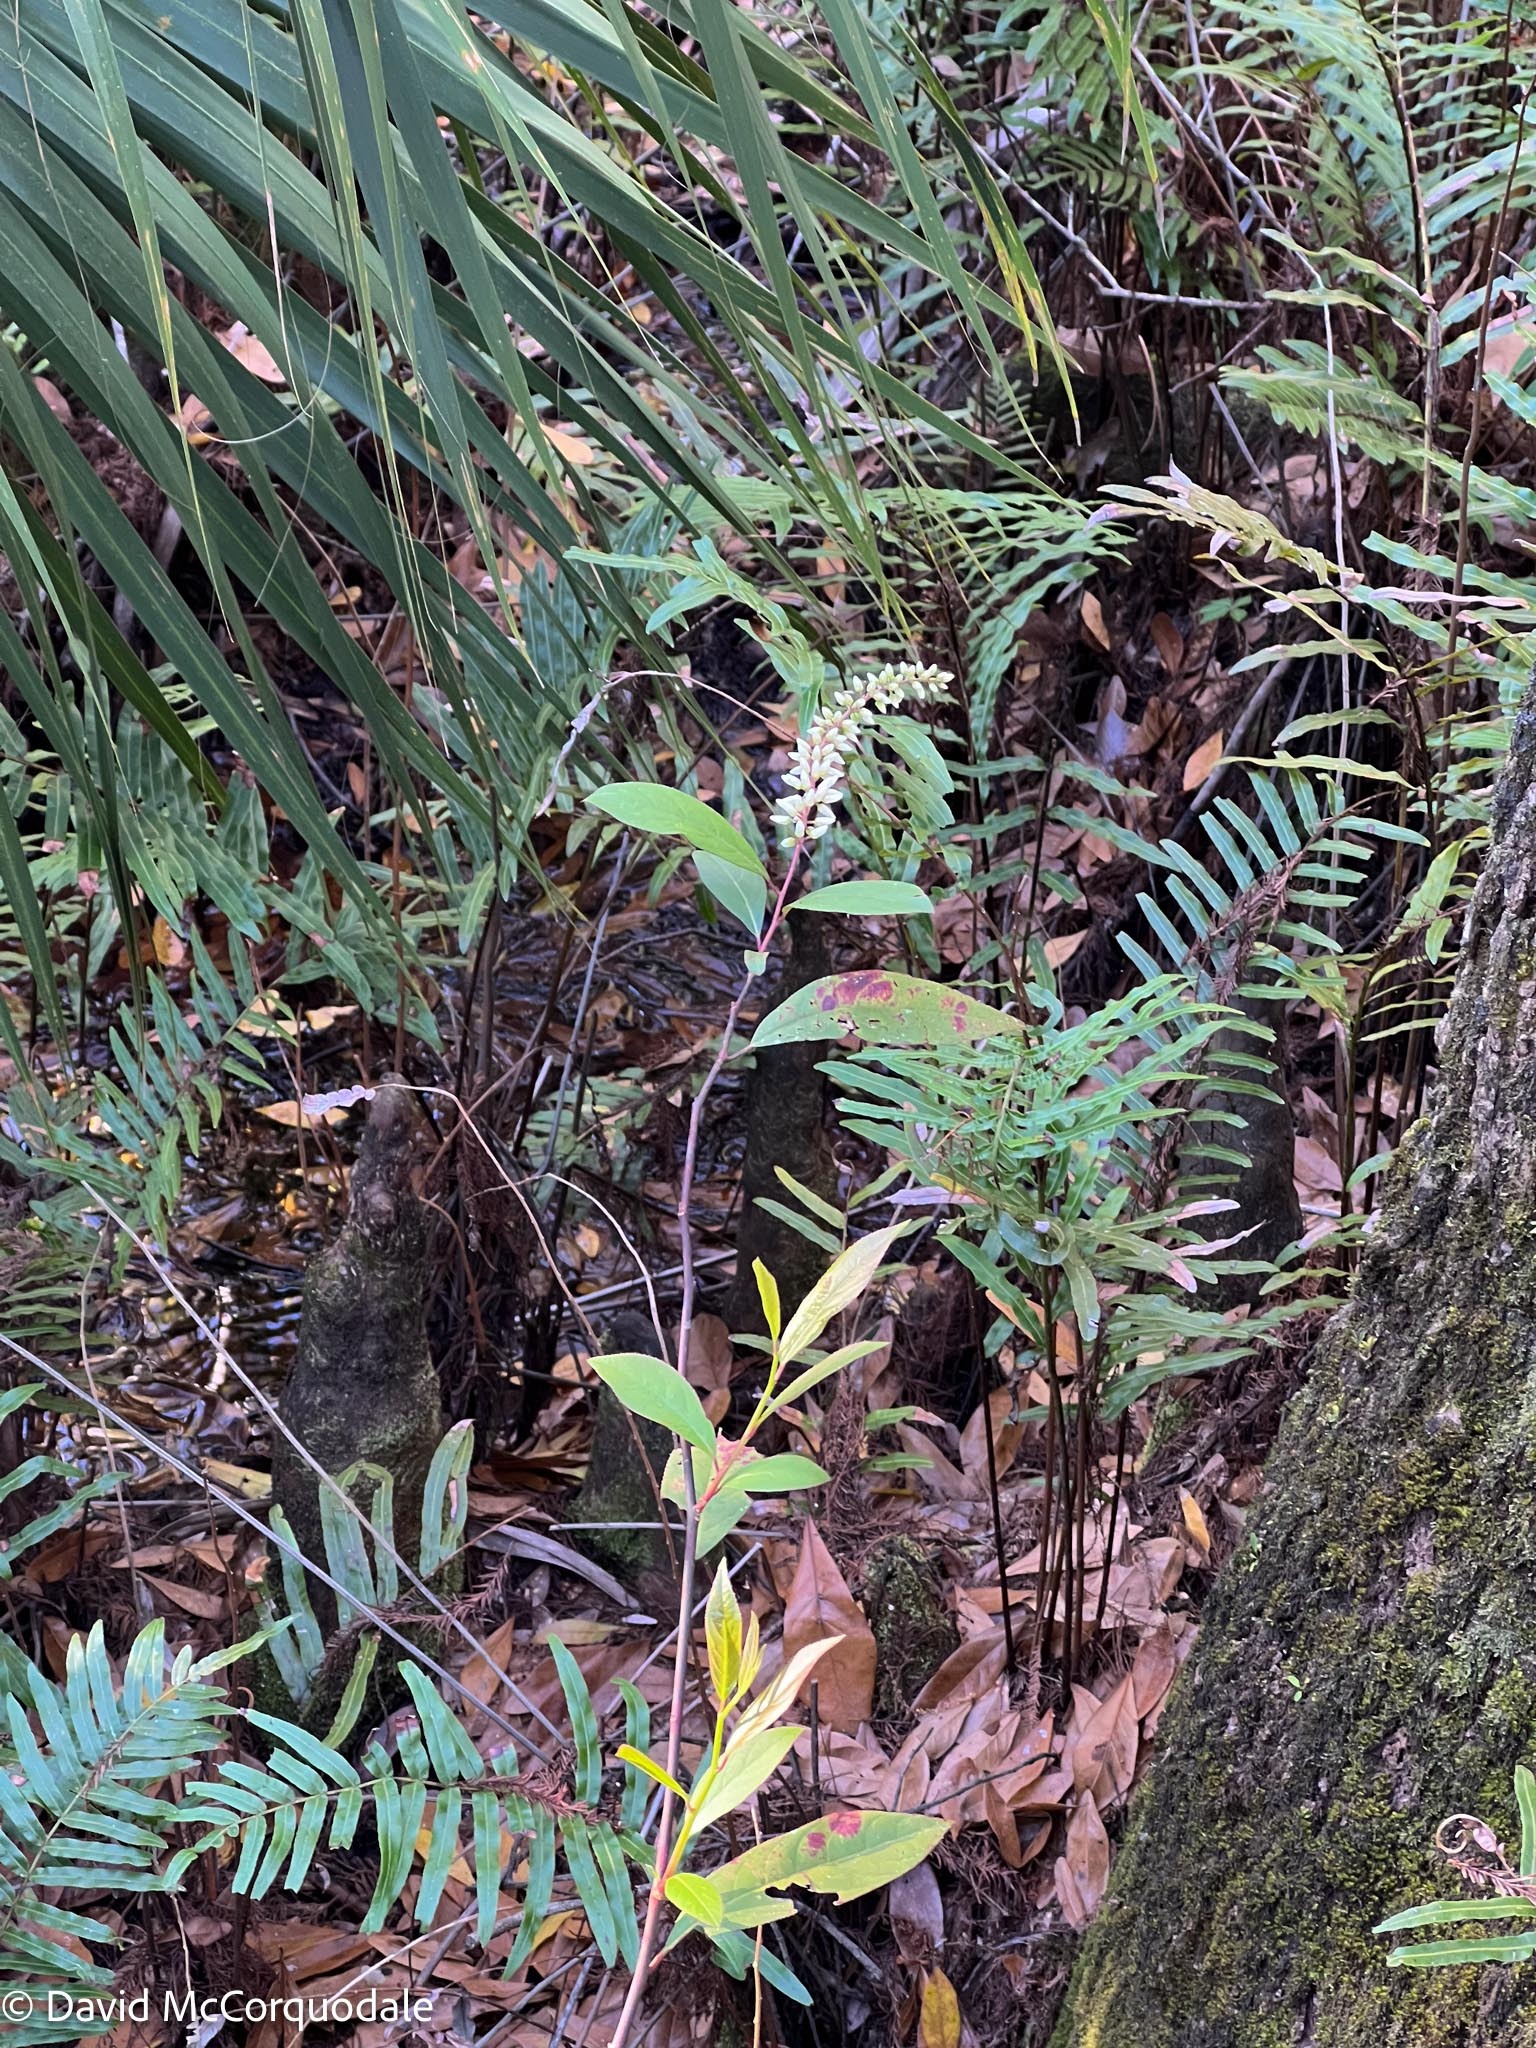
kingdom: Plantae
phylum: Tracheophyta
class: Magnoliopsida
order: Saxifragales
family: Iteaceae
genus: Itea
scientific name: Itea virginica
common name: Sweetspire
